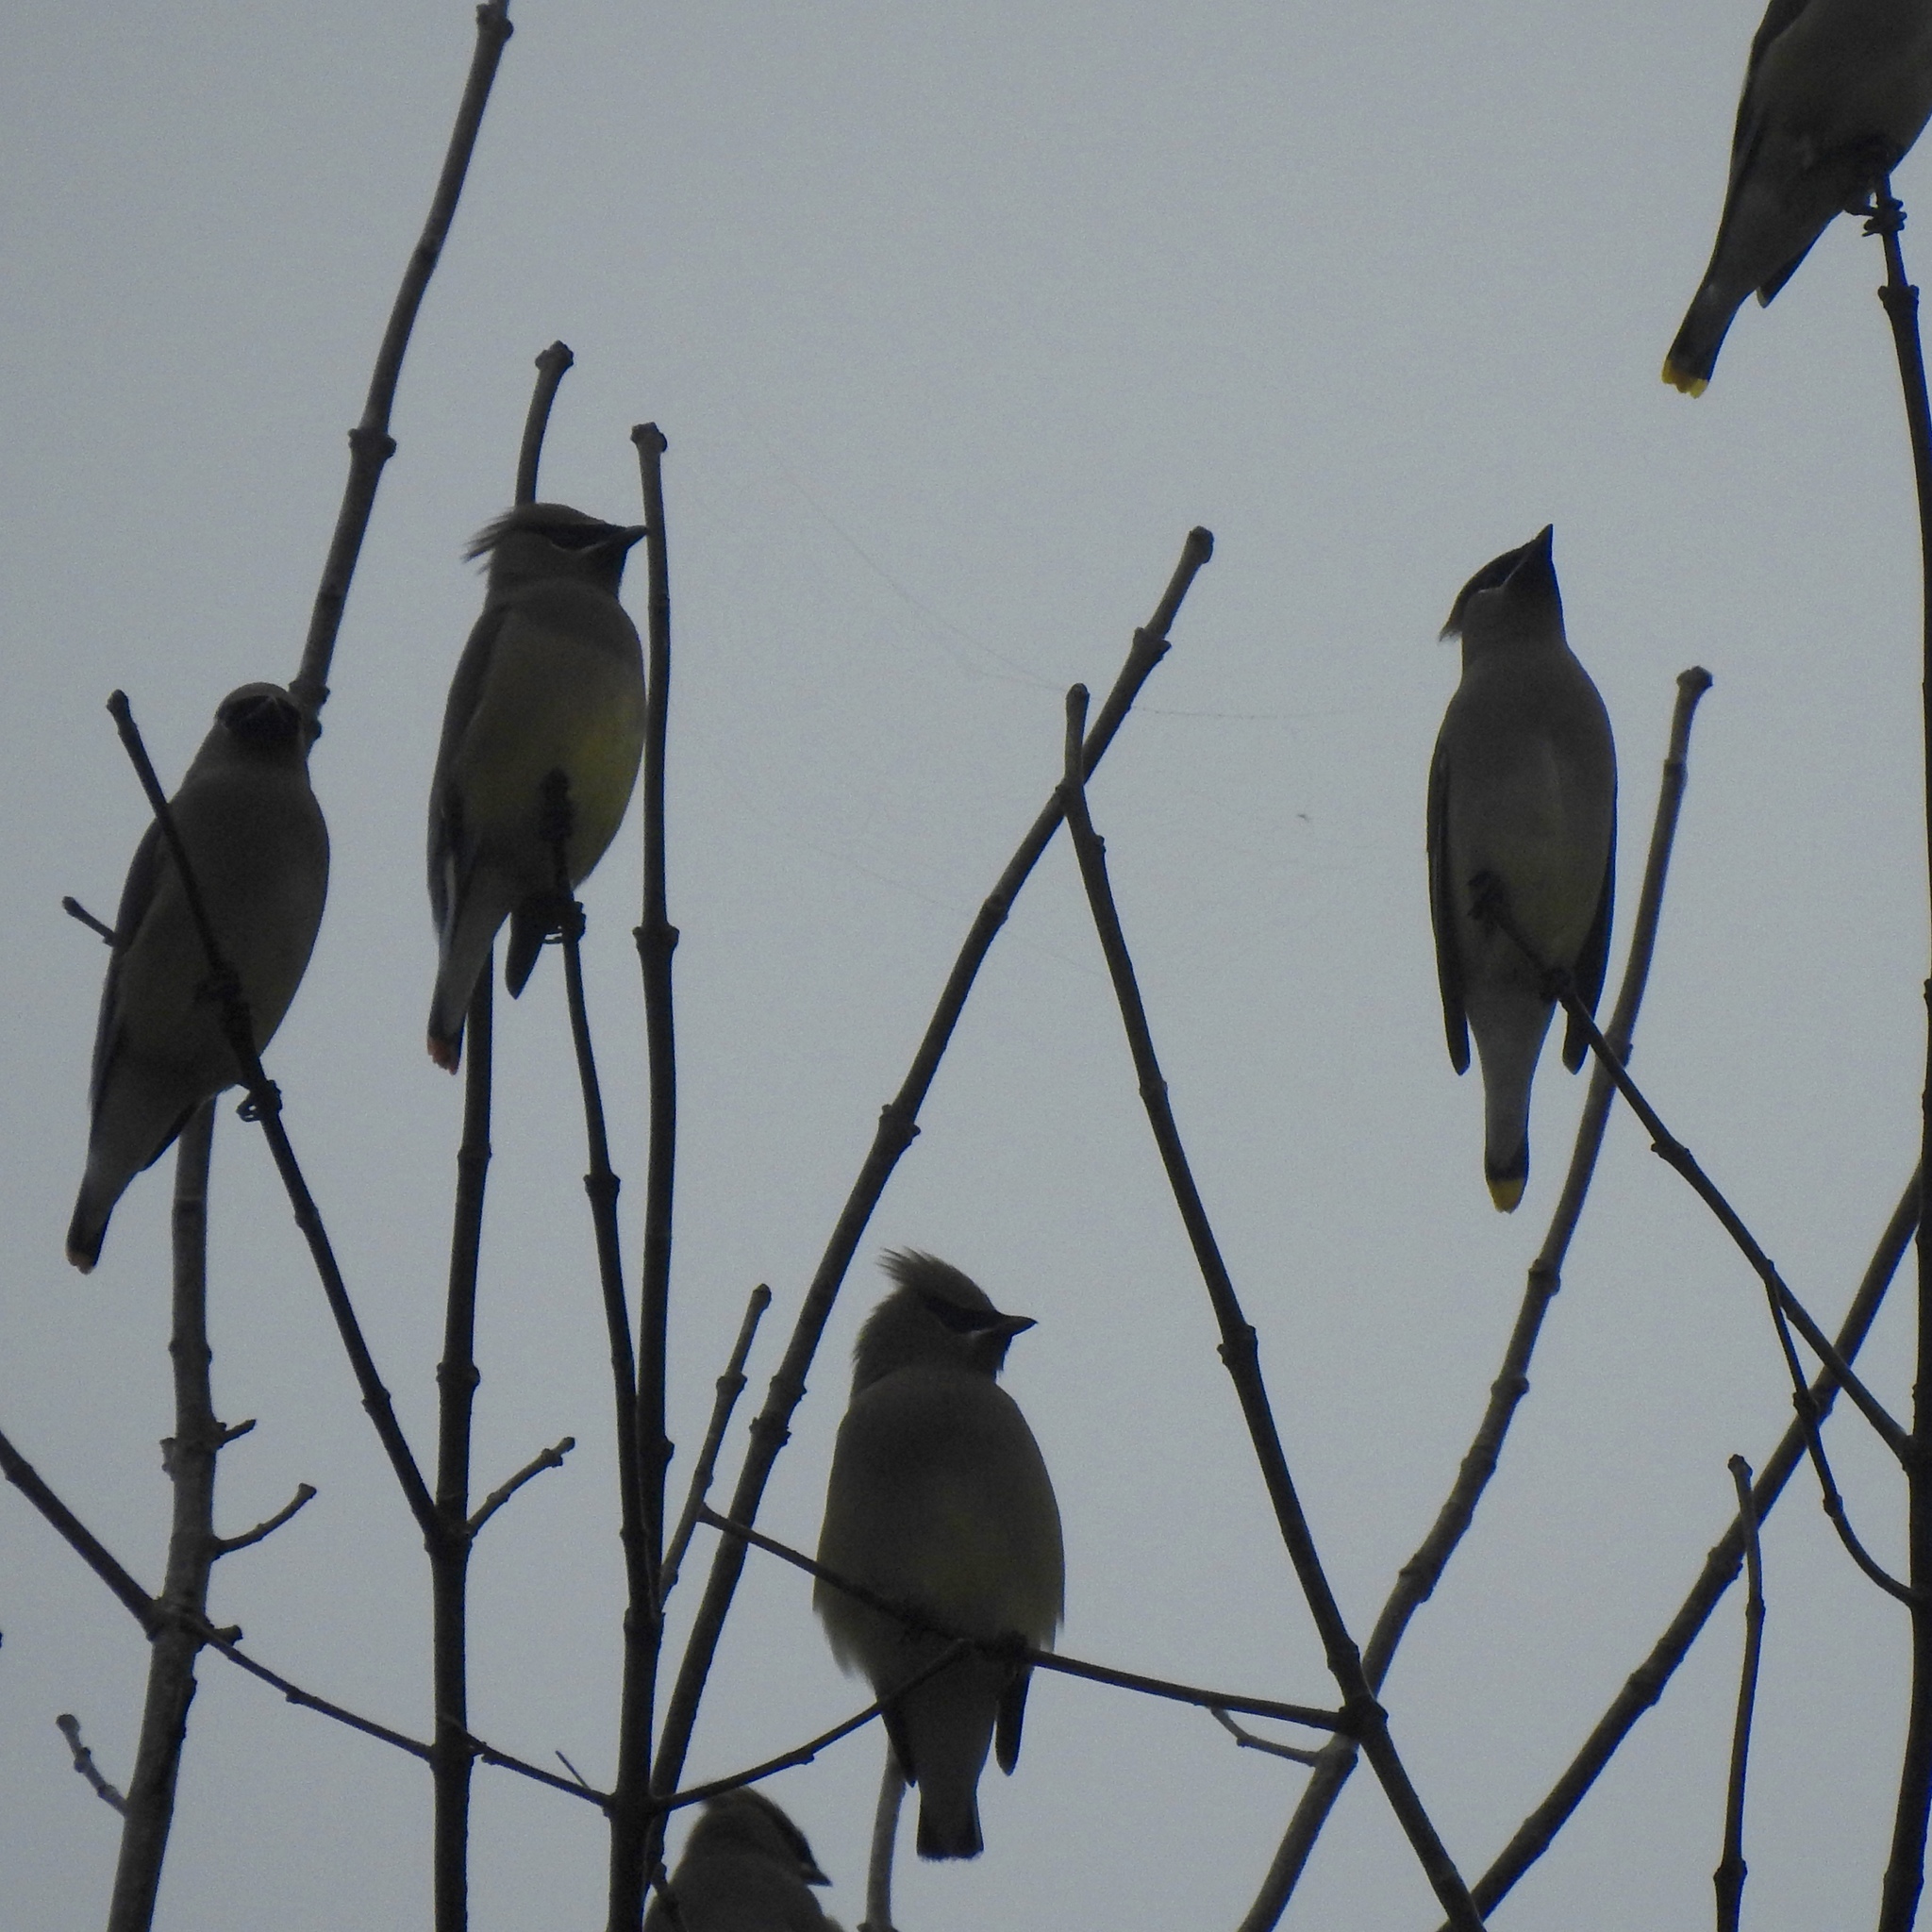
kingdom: Animalia
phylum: Chordata
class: Aves
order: Passeriformes
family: Bombycillidae
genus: Bombycilla
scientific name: Bombycilla cedrorum
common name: Cedar waxwing
